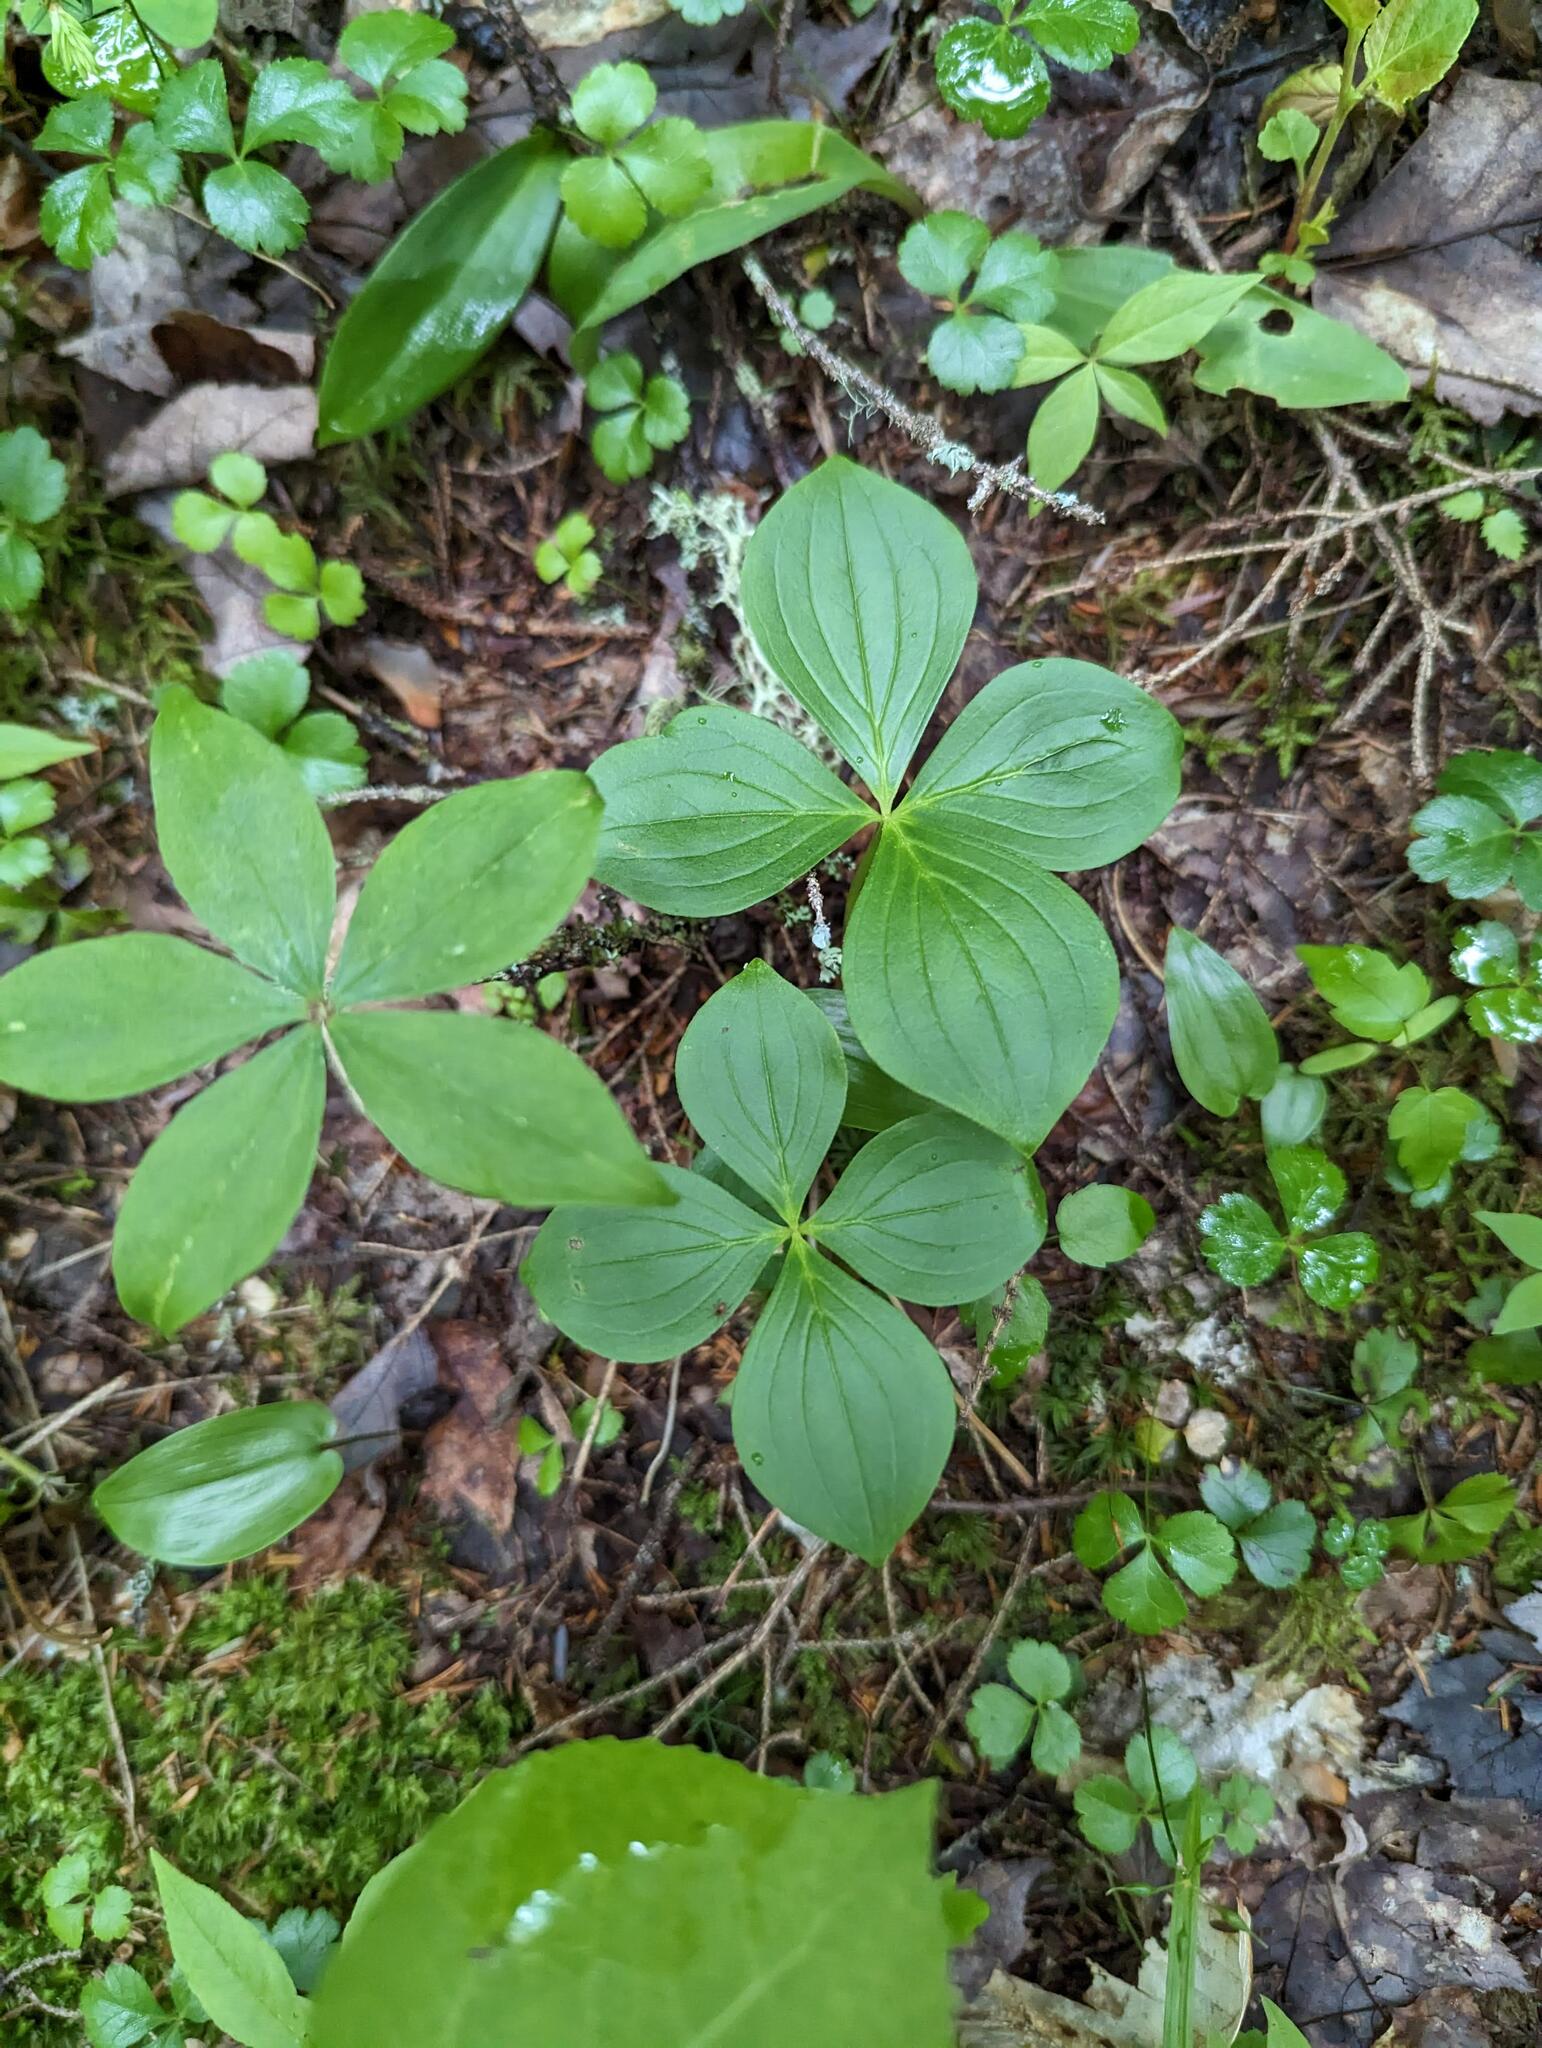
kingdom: Plantae
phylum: Tracheophyta
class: Magnoliopsida
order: Cornales
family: Cornaceae
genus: Cornus
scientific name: Cornus canadensis
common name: Creeping dogwood
